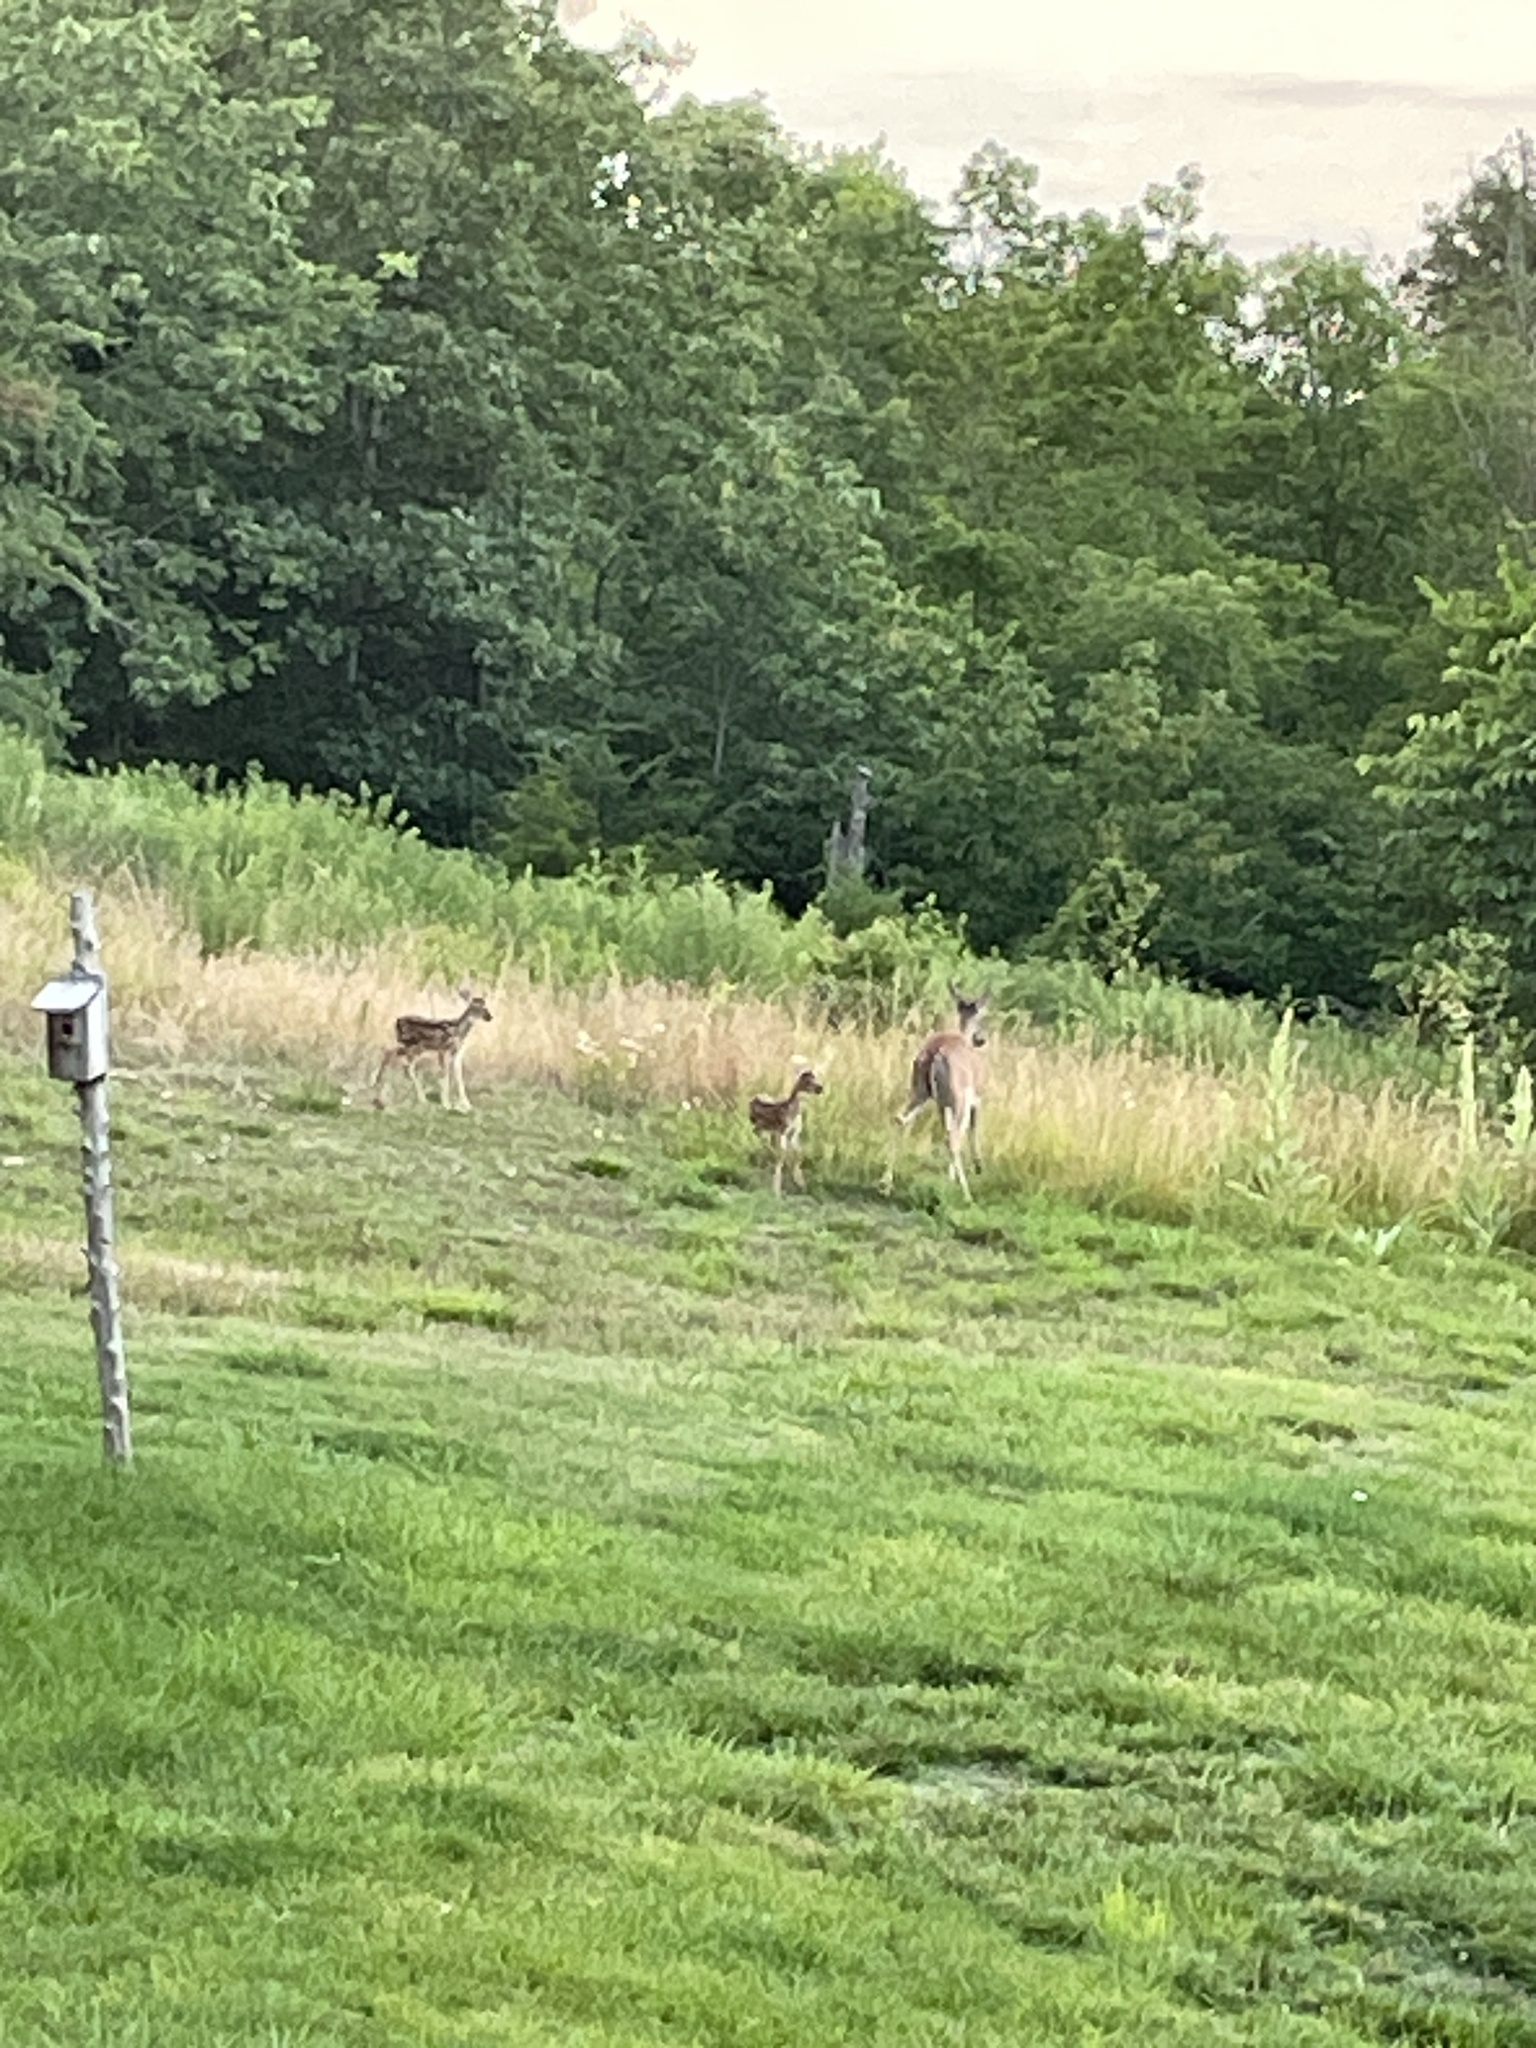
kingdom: Animalia
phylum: Chordata
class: Mammalia
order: Artiodactyla
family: Cervidae
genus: Odocoileus
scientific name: Odocoileus virginianus
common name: White-tailed deer
